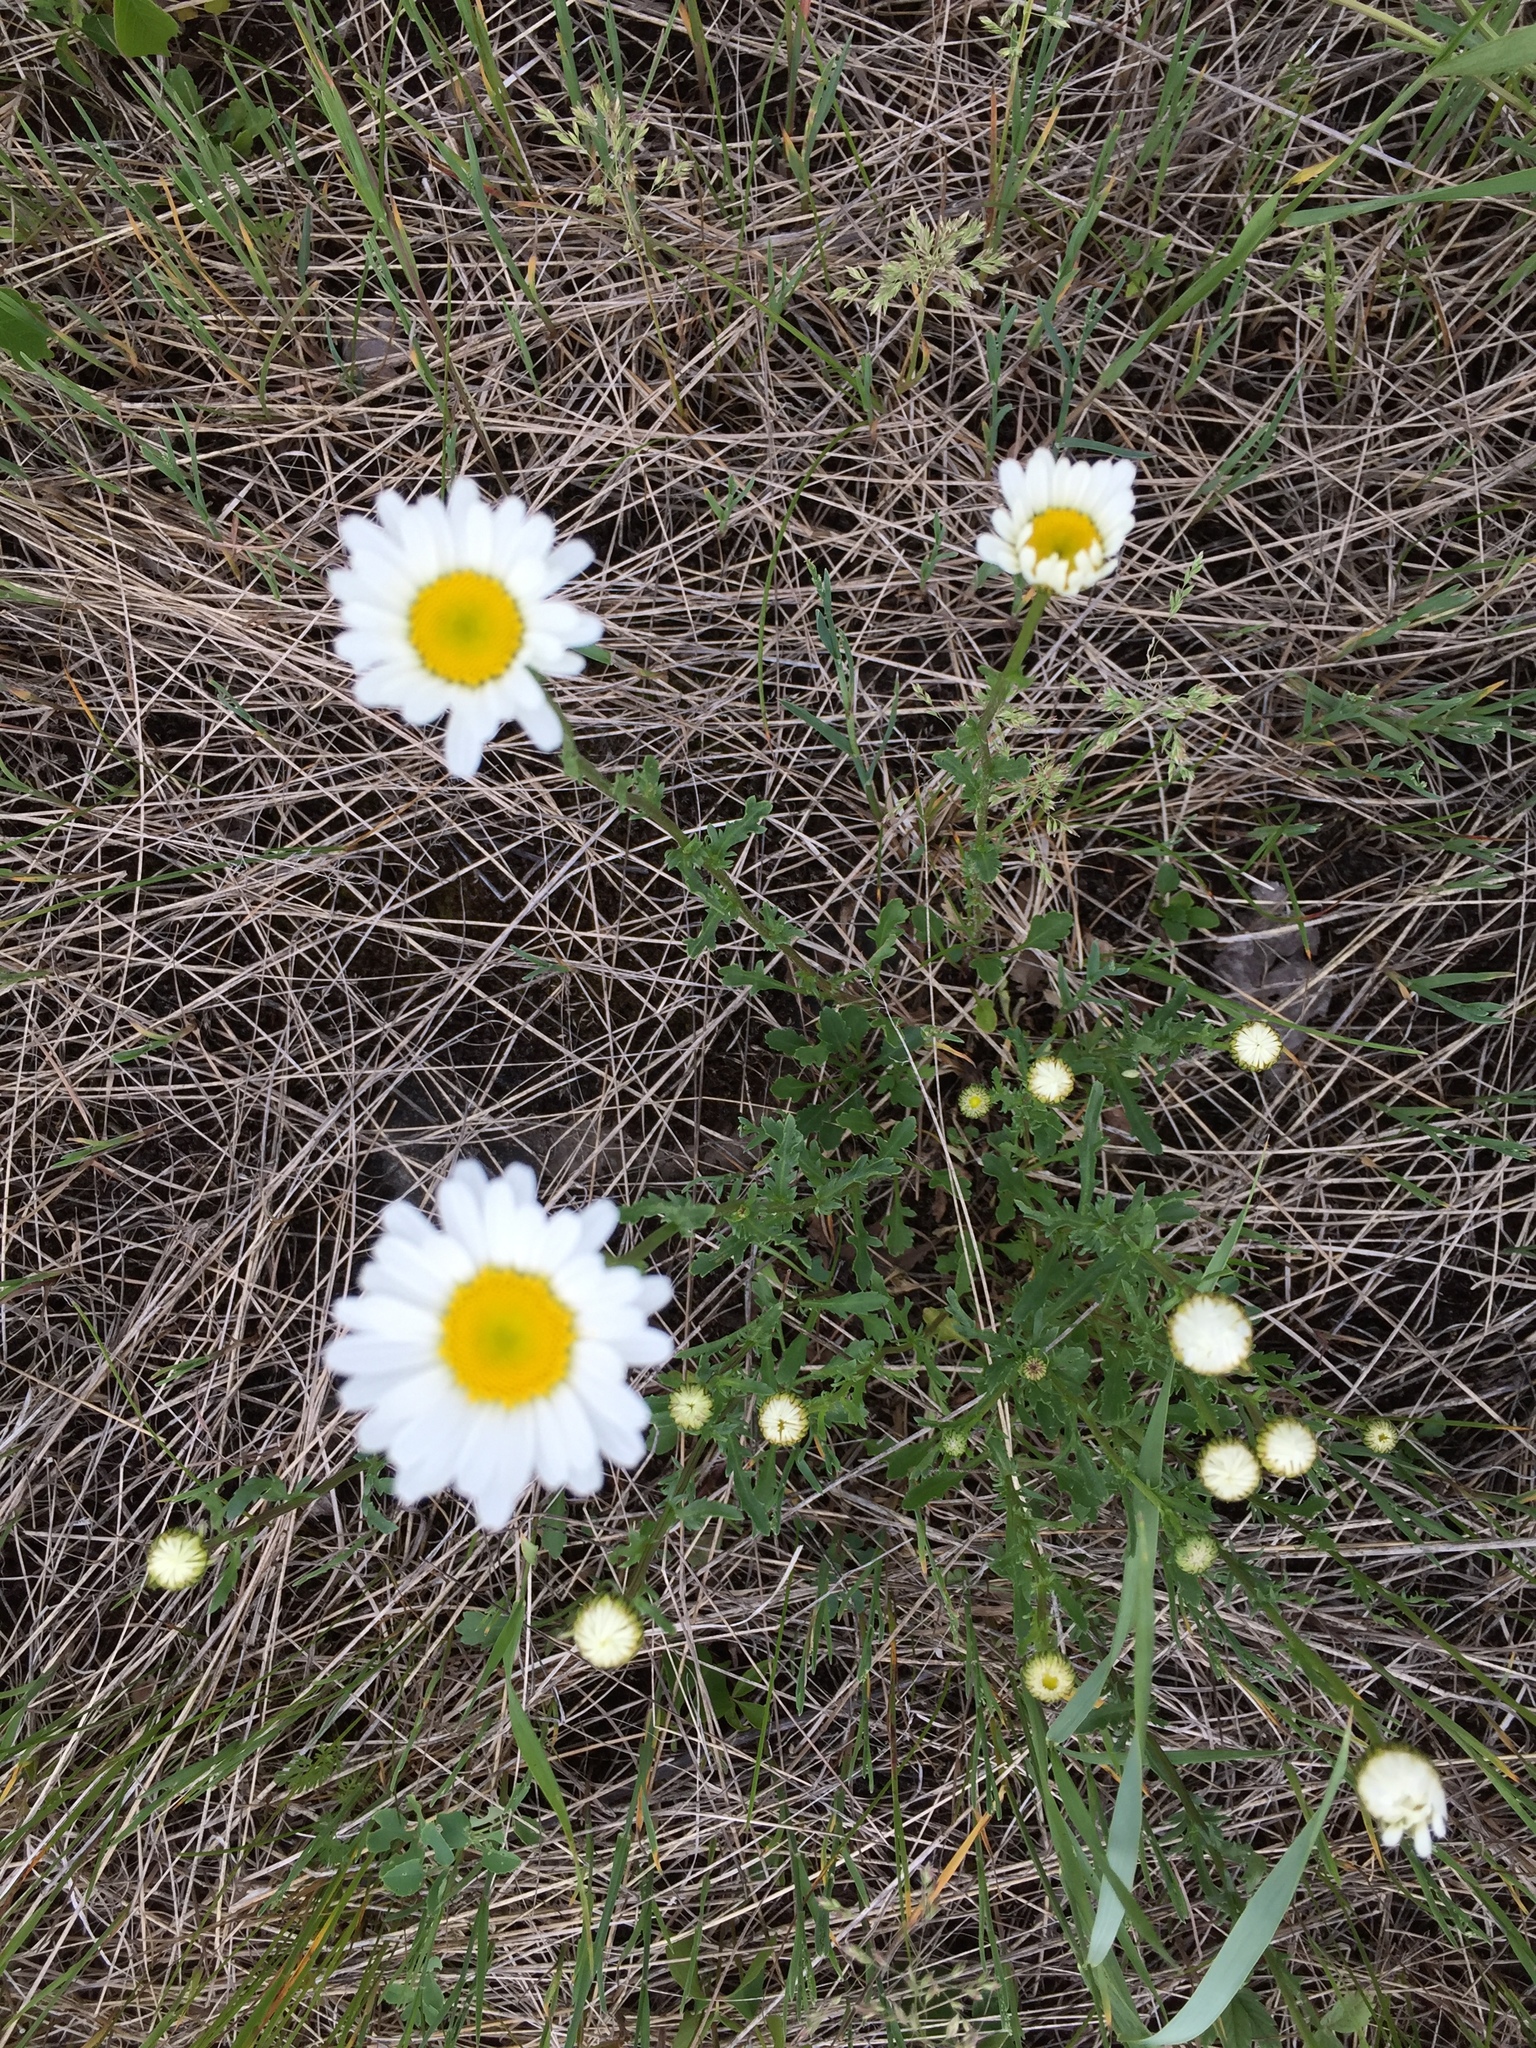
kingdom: Plantae
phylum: Tracheophyta
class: Magnoliopsida
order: Asterales
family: Asteraceae
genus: Leucanthemum
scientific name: Leucanthemum vulgare
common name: Oxeye daisy
